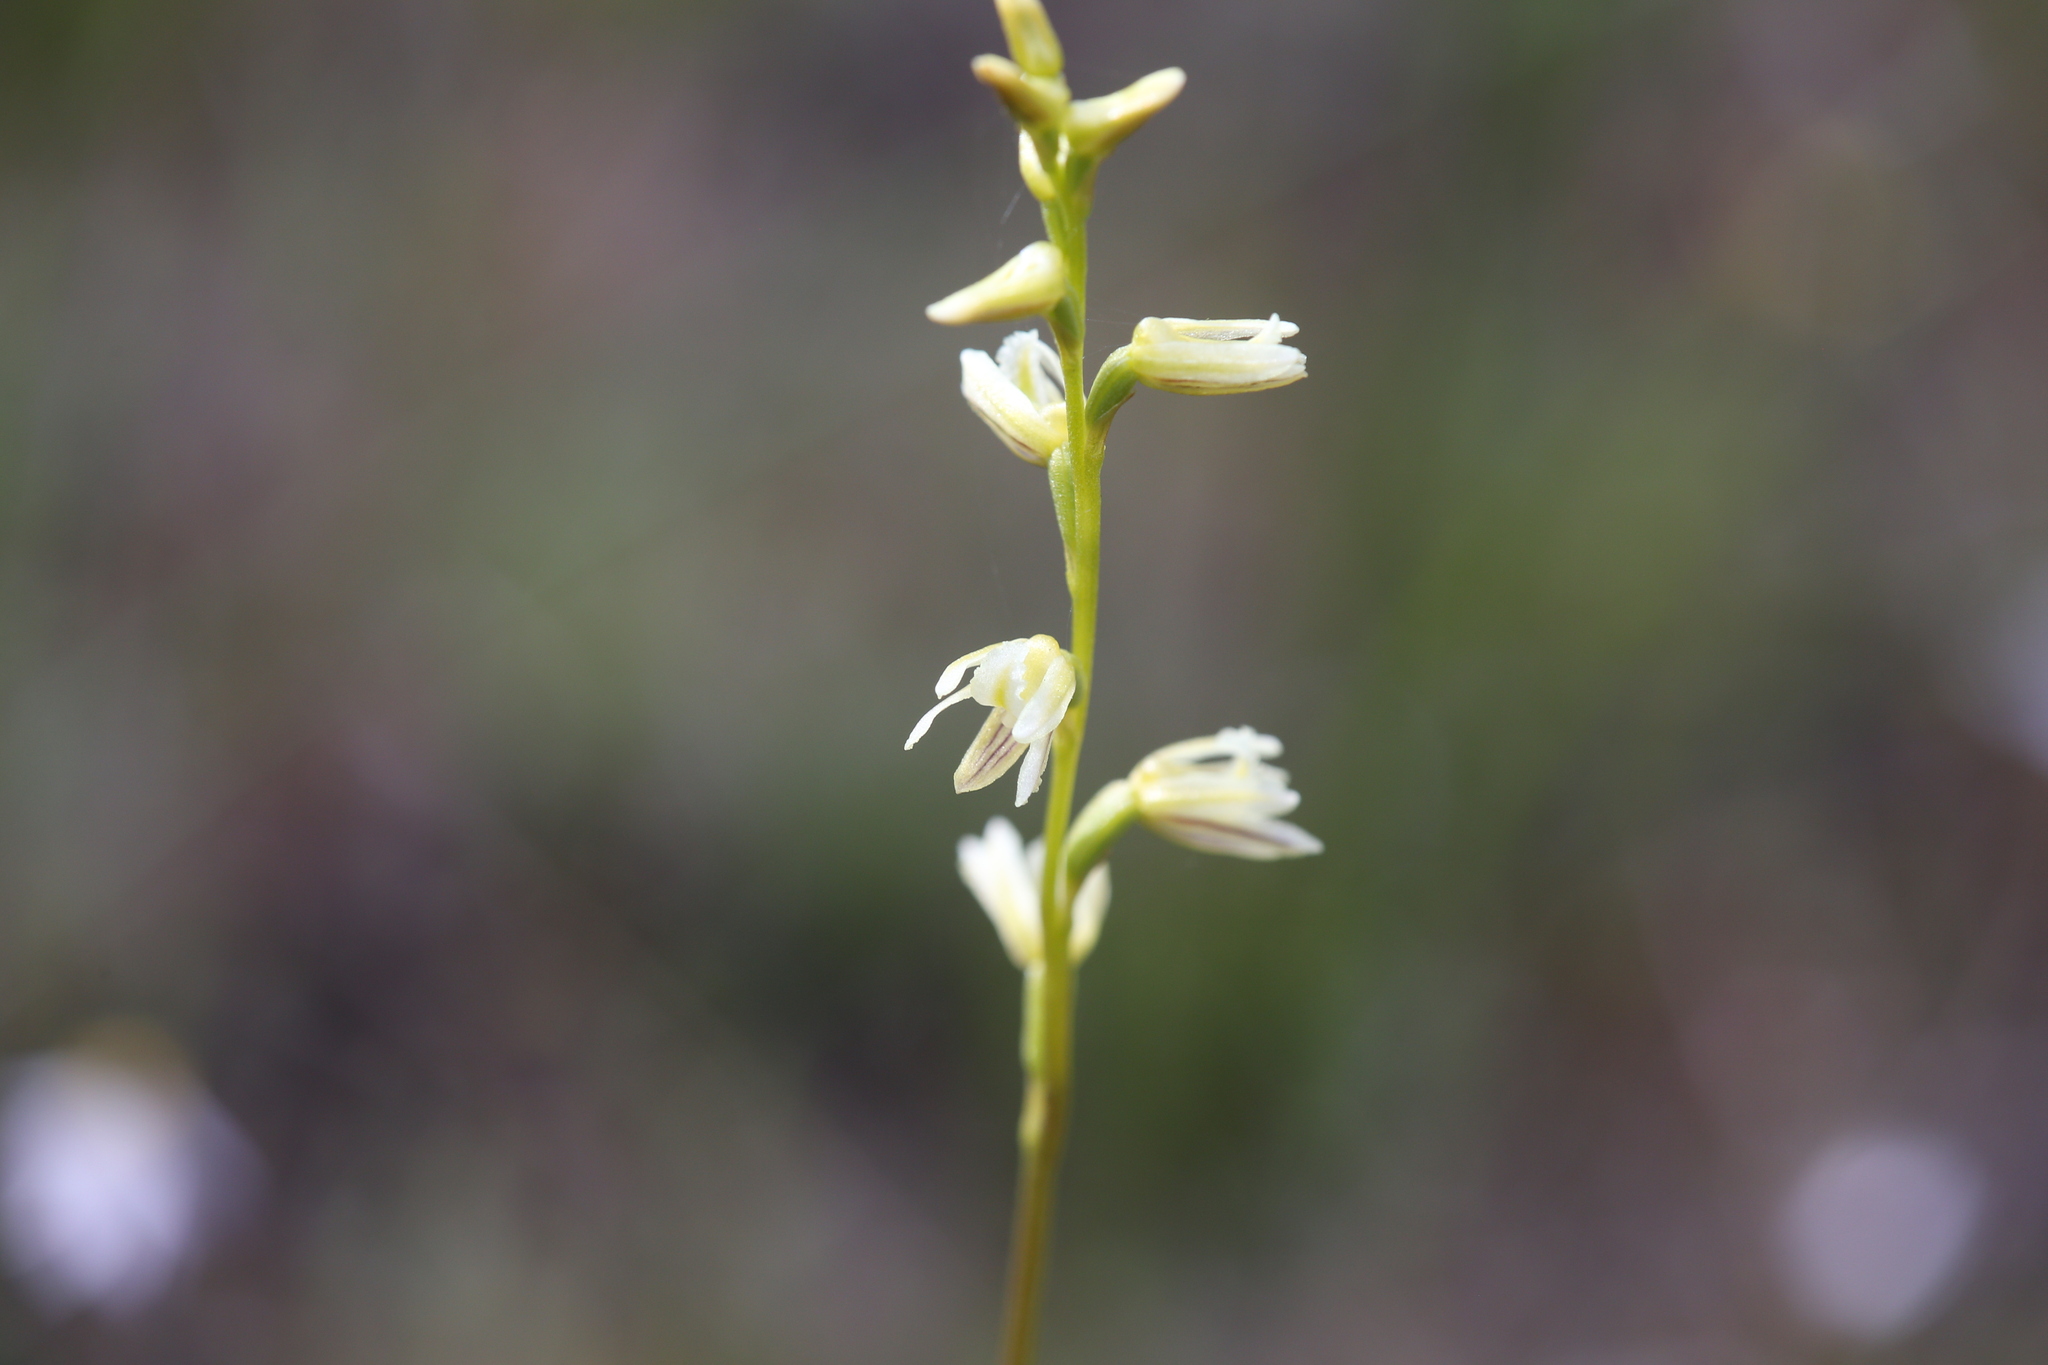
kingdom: Plantae
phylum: Tracheophyta
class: Liliopsida
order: Asparagales
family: Orchidaceae
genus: Prasophyllum
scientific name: Prasophyllum cyphochilum
